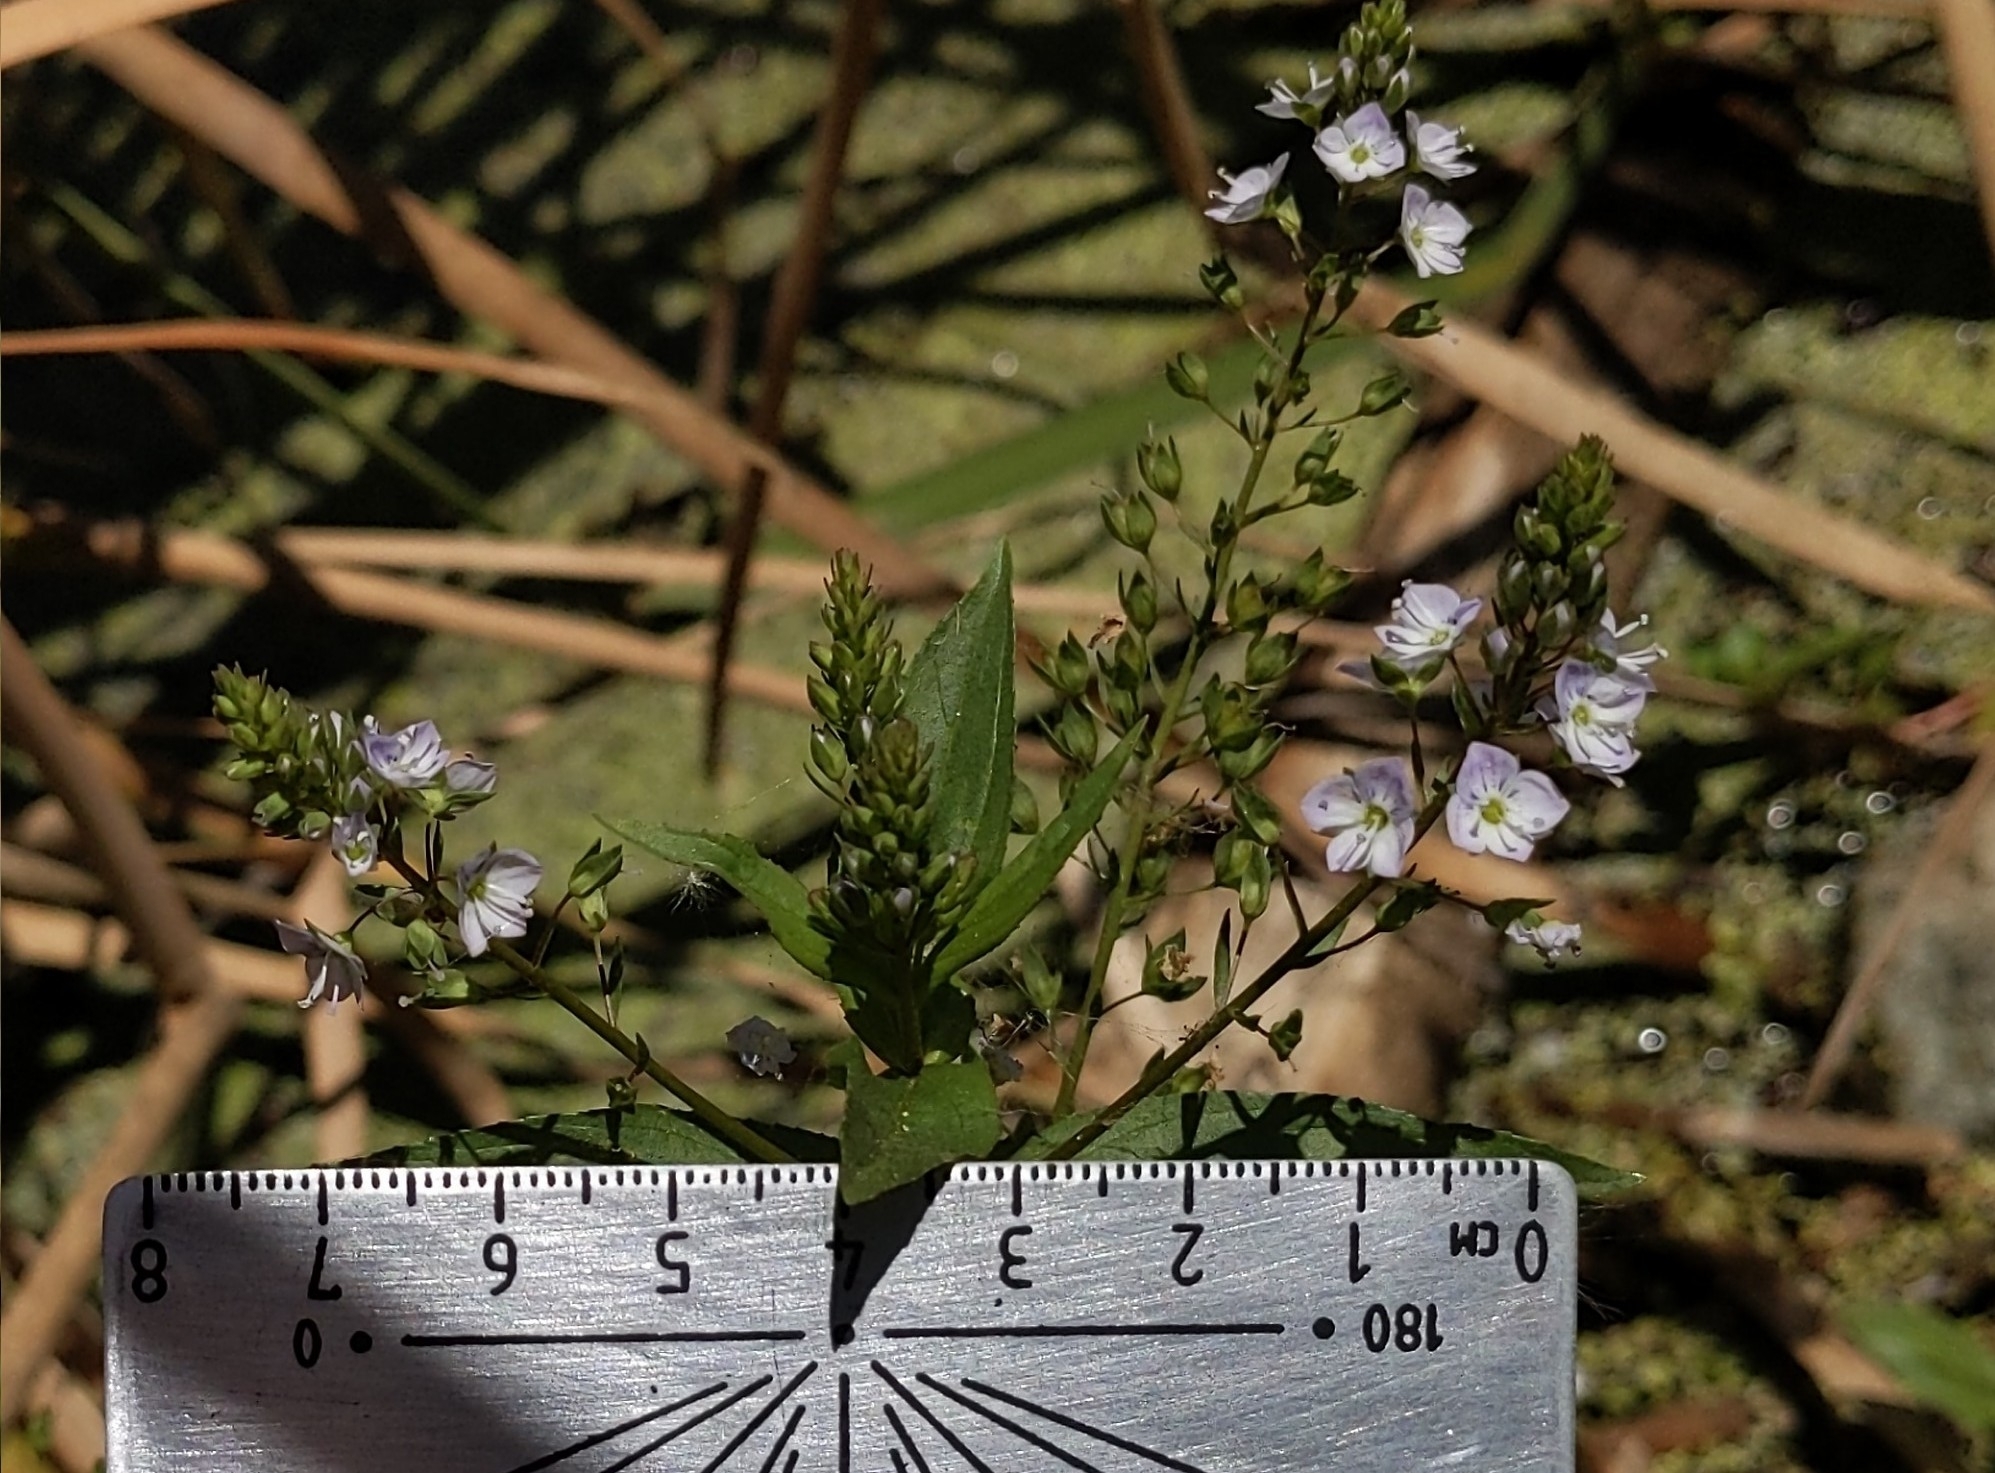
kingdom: Plantae
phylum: Tracheophyta
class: Magnoliopsida
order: Lamiales
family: Plantaginaceae
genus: Veronica
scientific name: Veronica anagallis-aquatica
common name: Water speedwell
